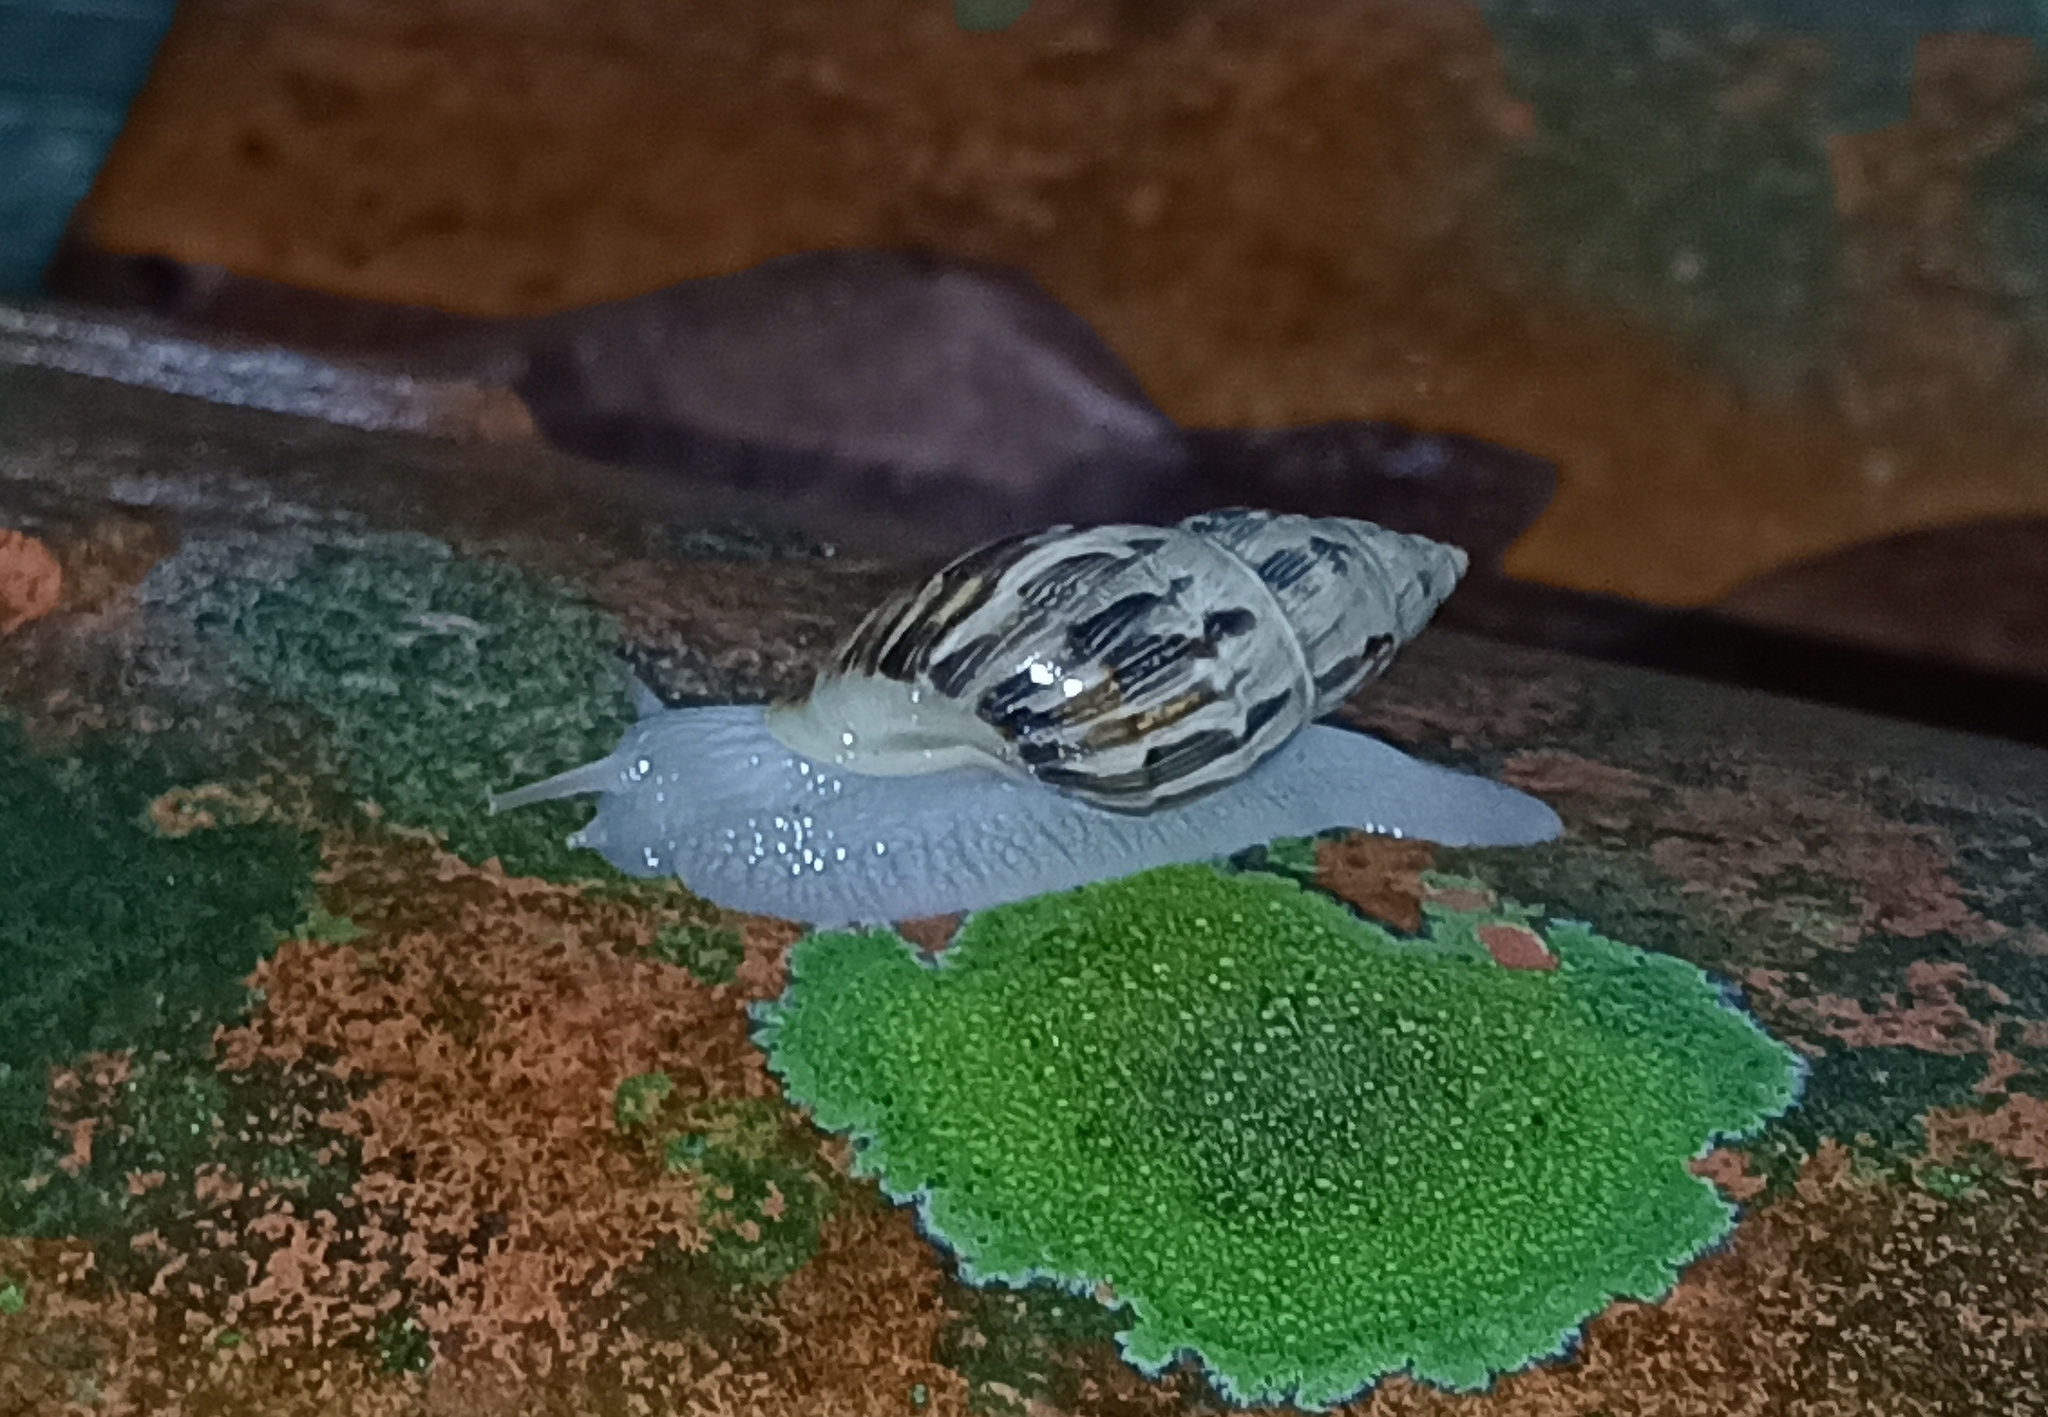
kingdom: Animalia
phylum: Mollusca
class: Gastropoda
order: Stylommatophora
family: Bulimulidae
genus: Drymaeus
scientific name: Drymaeus papyraceus
